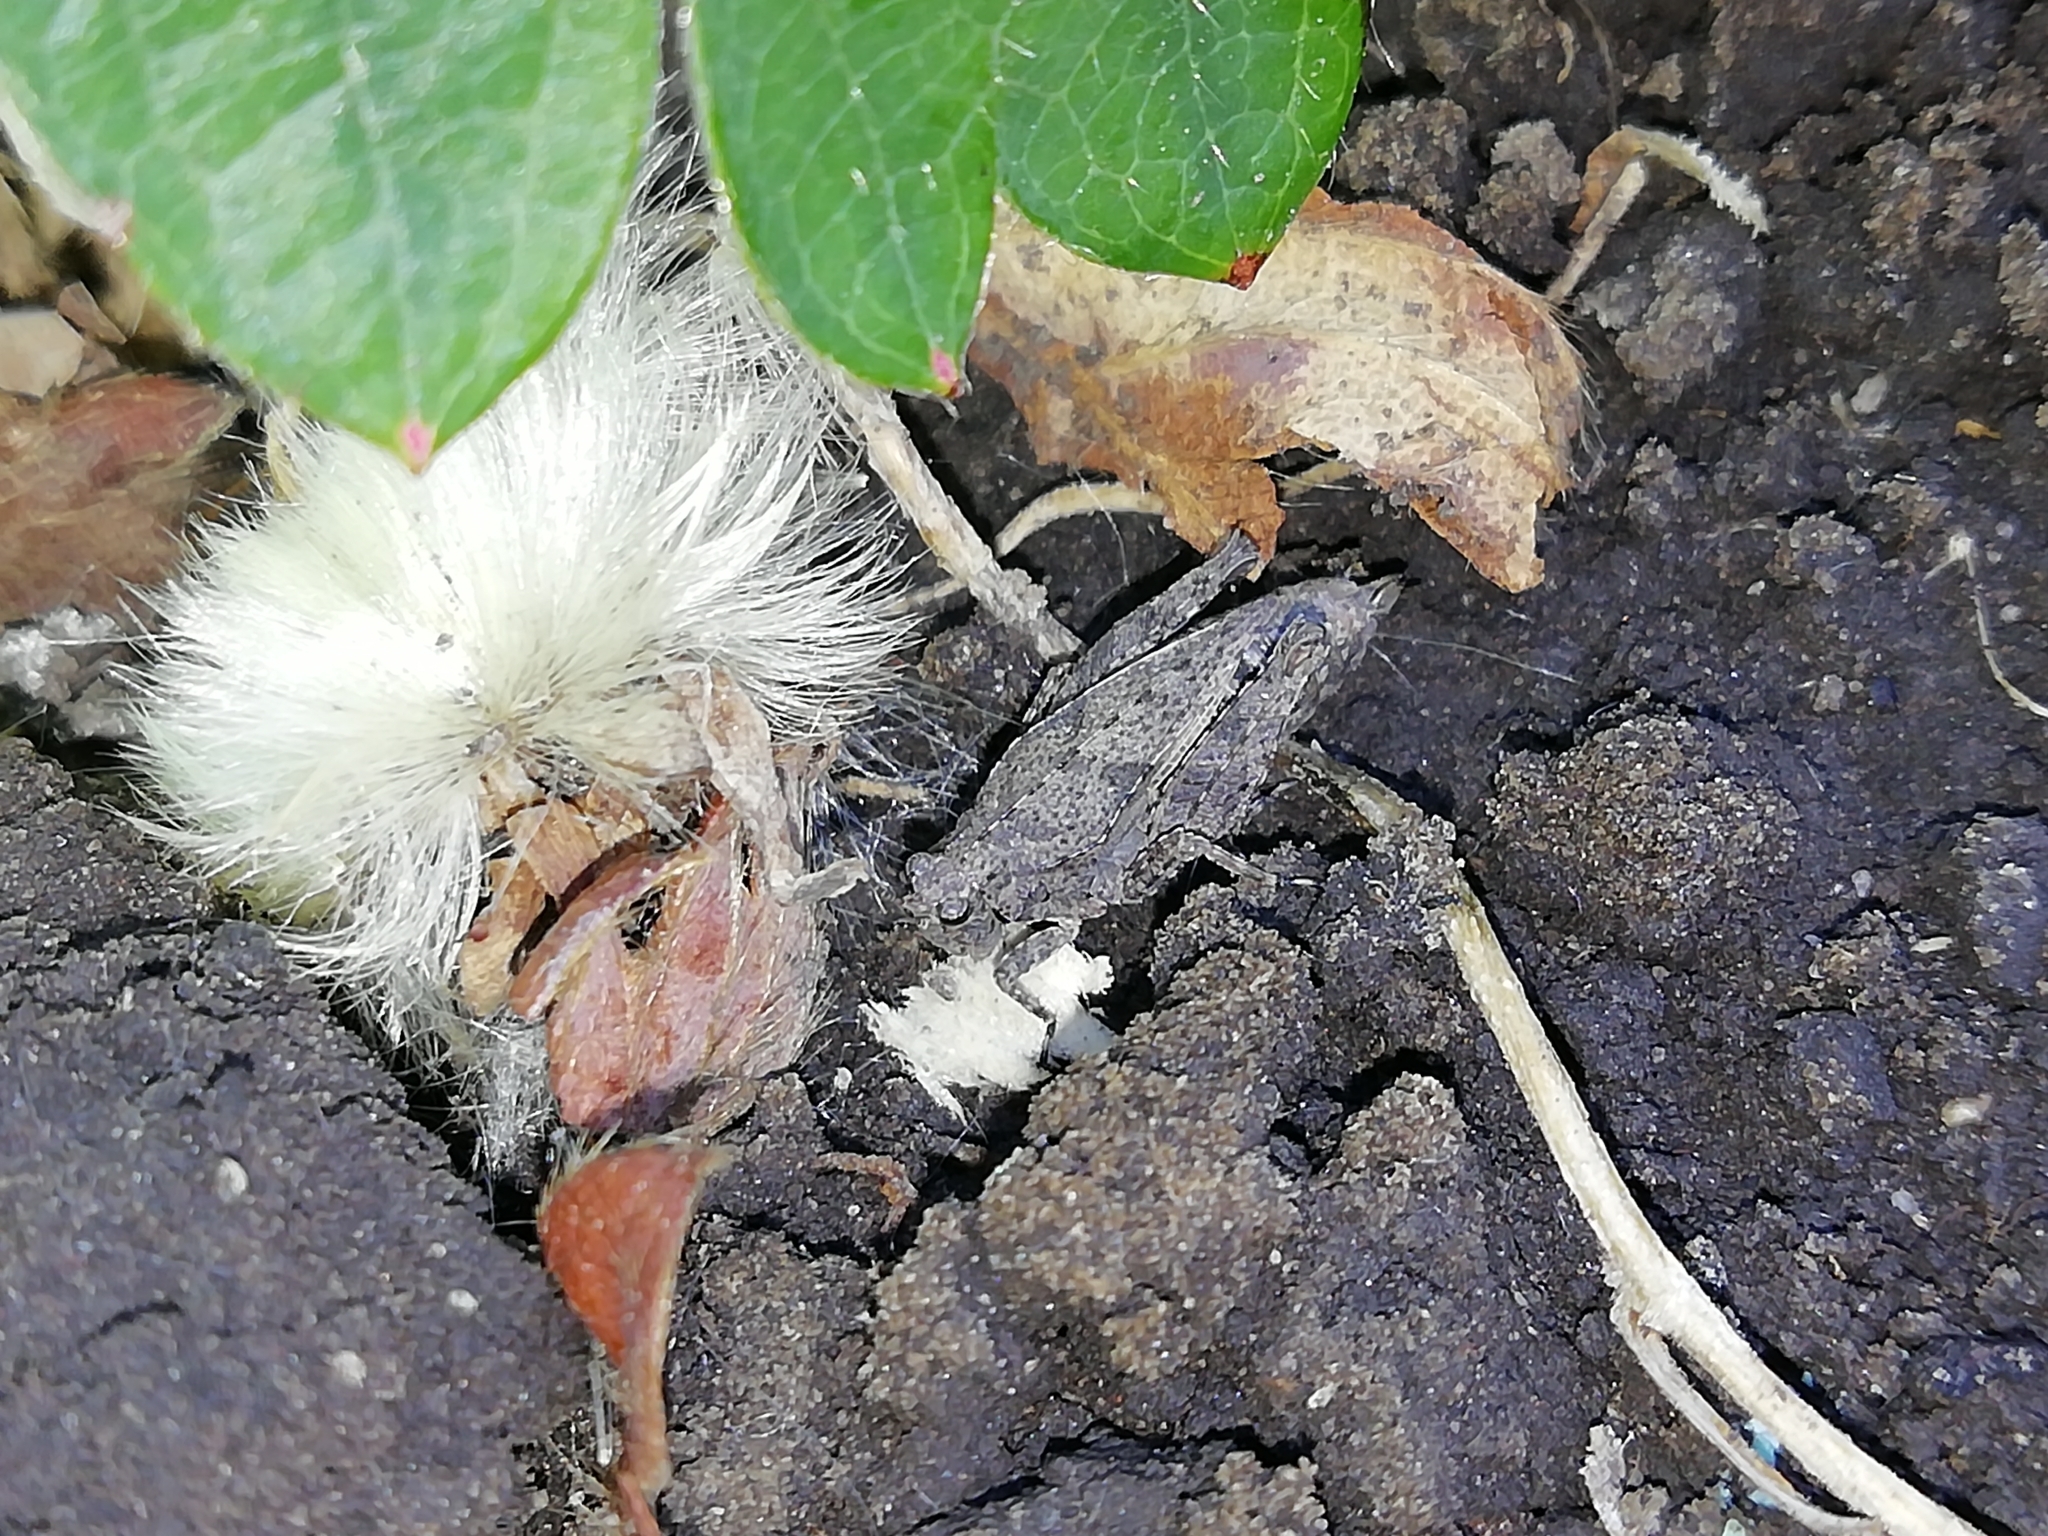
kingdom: Animalia
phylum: Arthropoda
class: Insecta
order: Orthoptera
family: Tetrigidae
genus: Tetrix
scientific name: Tetrix tenuicornis
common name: Long-horned groundhopper
